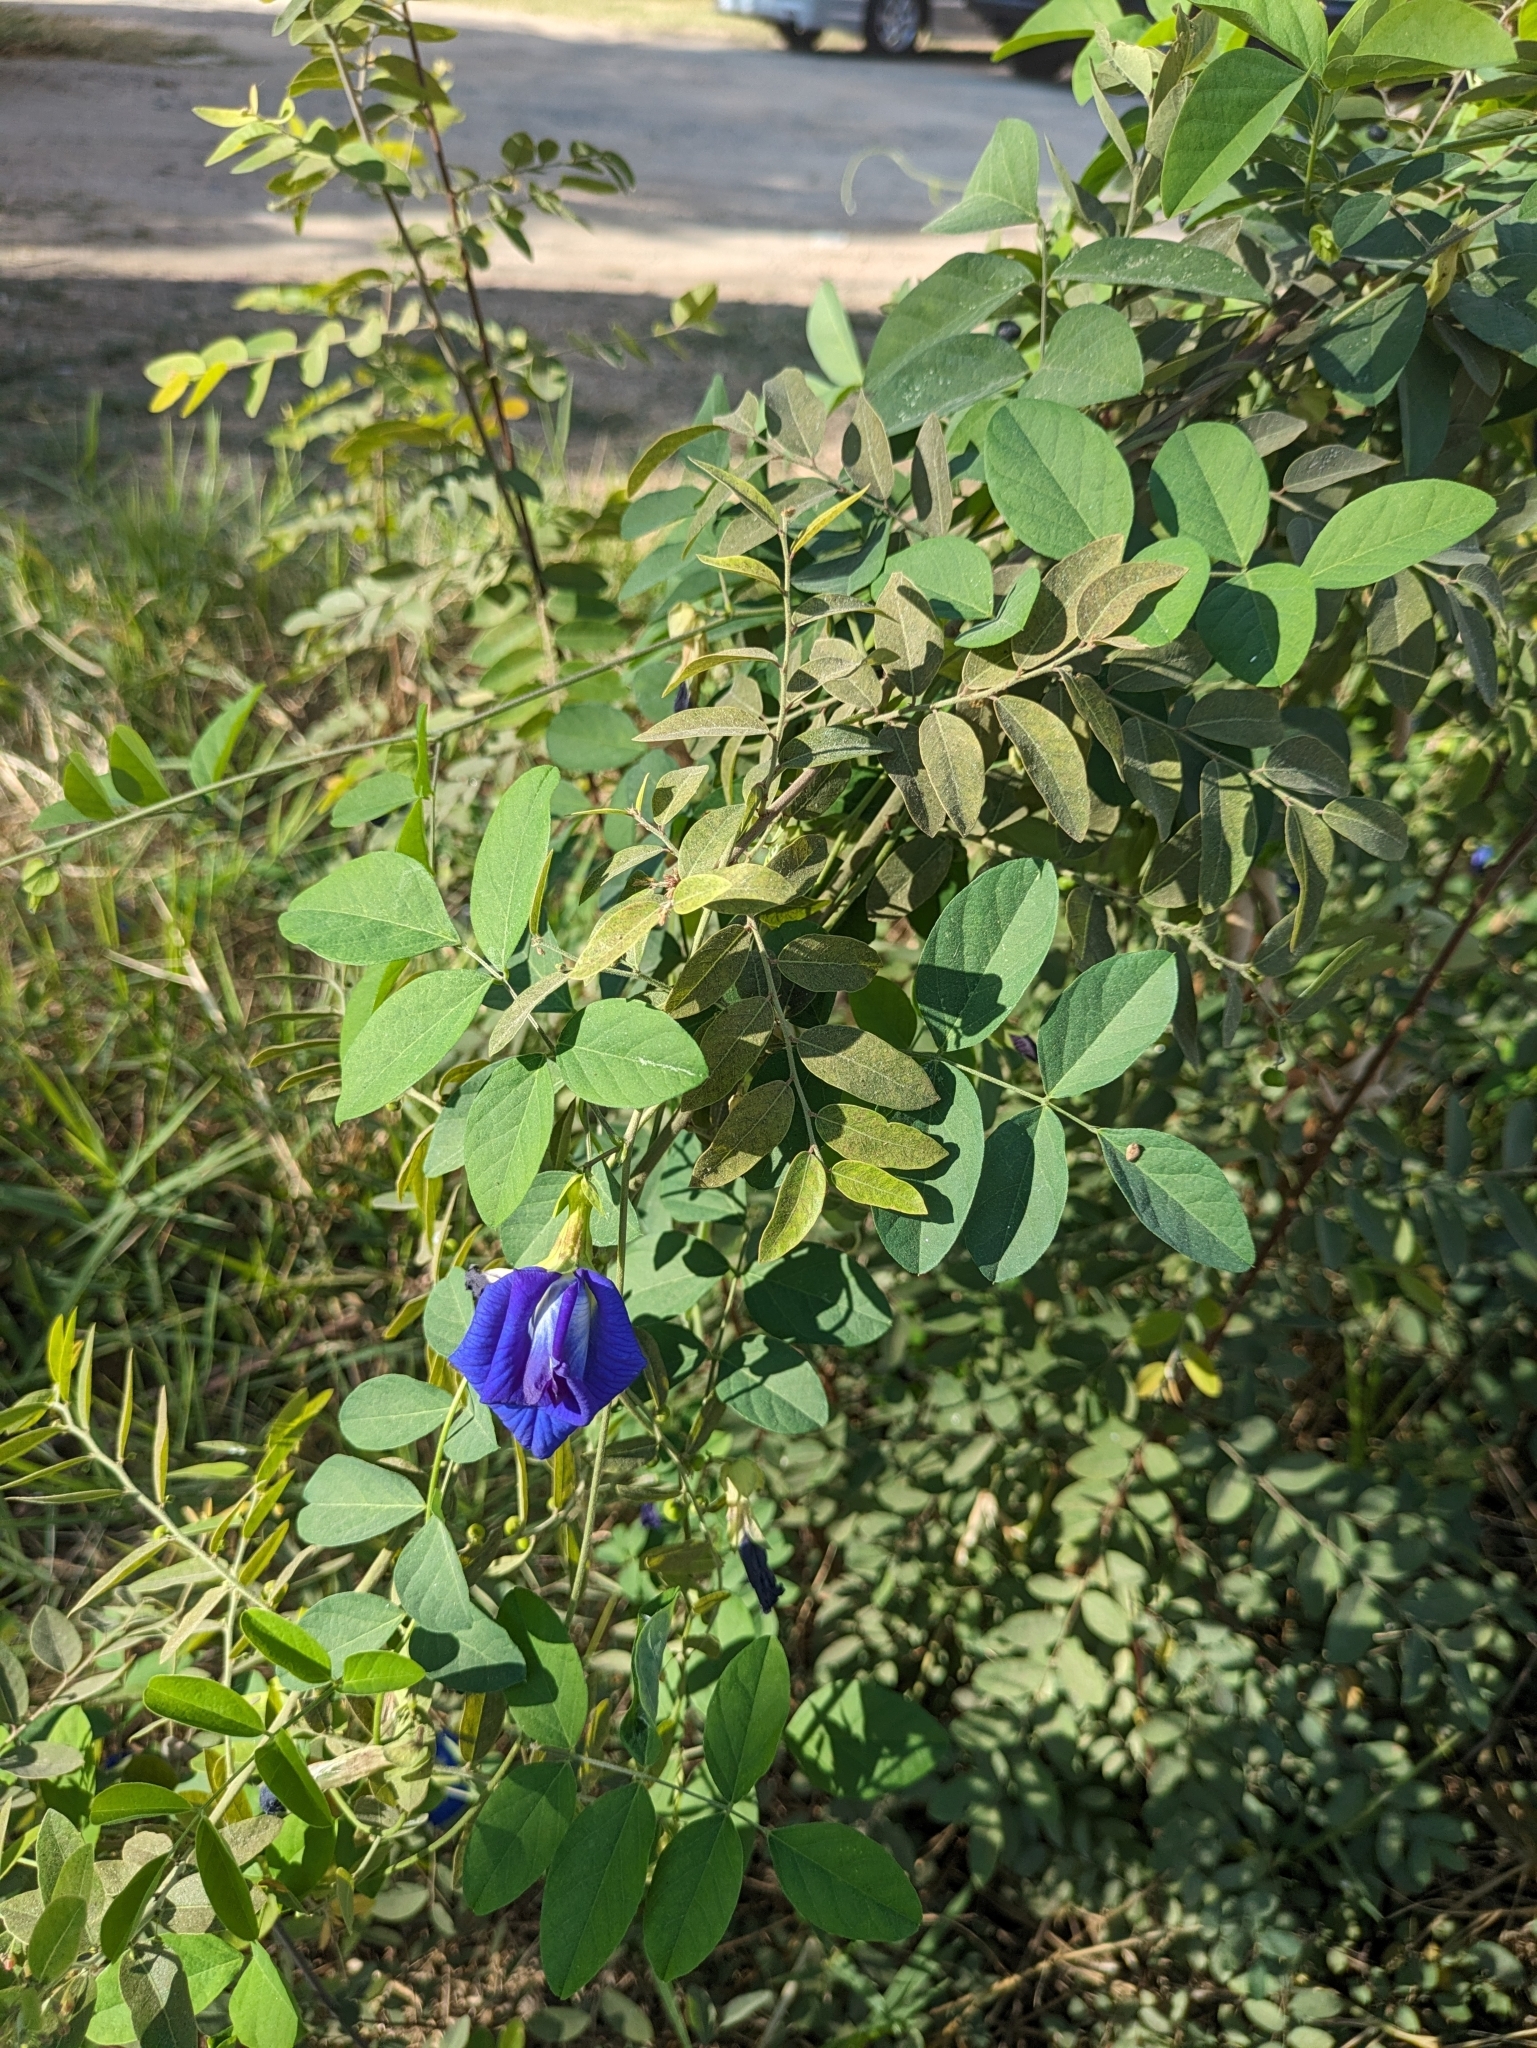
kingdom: Plantae
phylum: Tracheophyta
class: Magnoliopsida
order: Fabales
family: Fabaceae
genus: Clitoria
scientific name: Clitoria ternatea
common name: Asian pigeonwings
